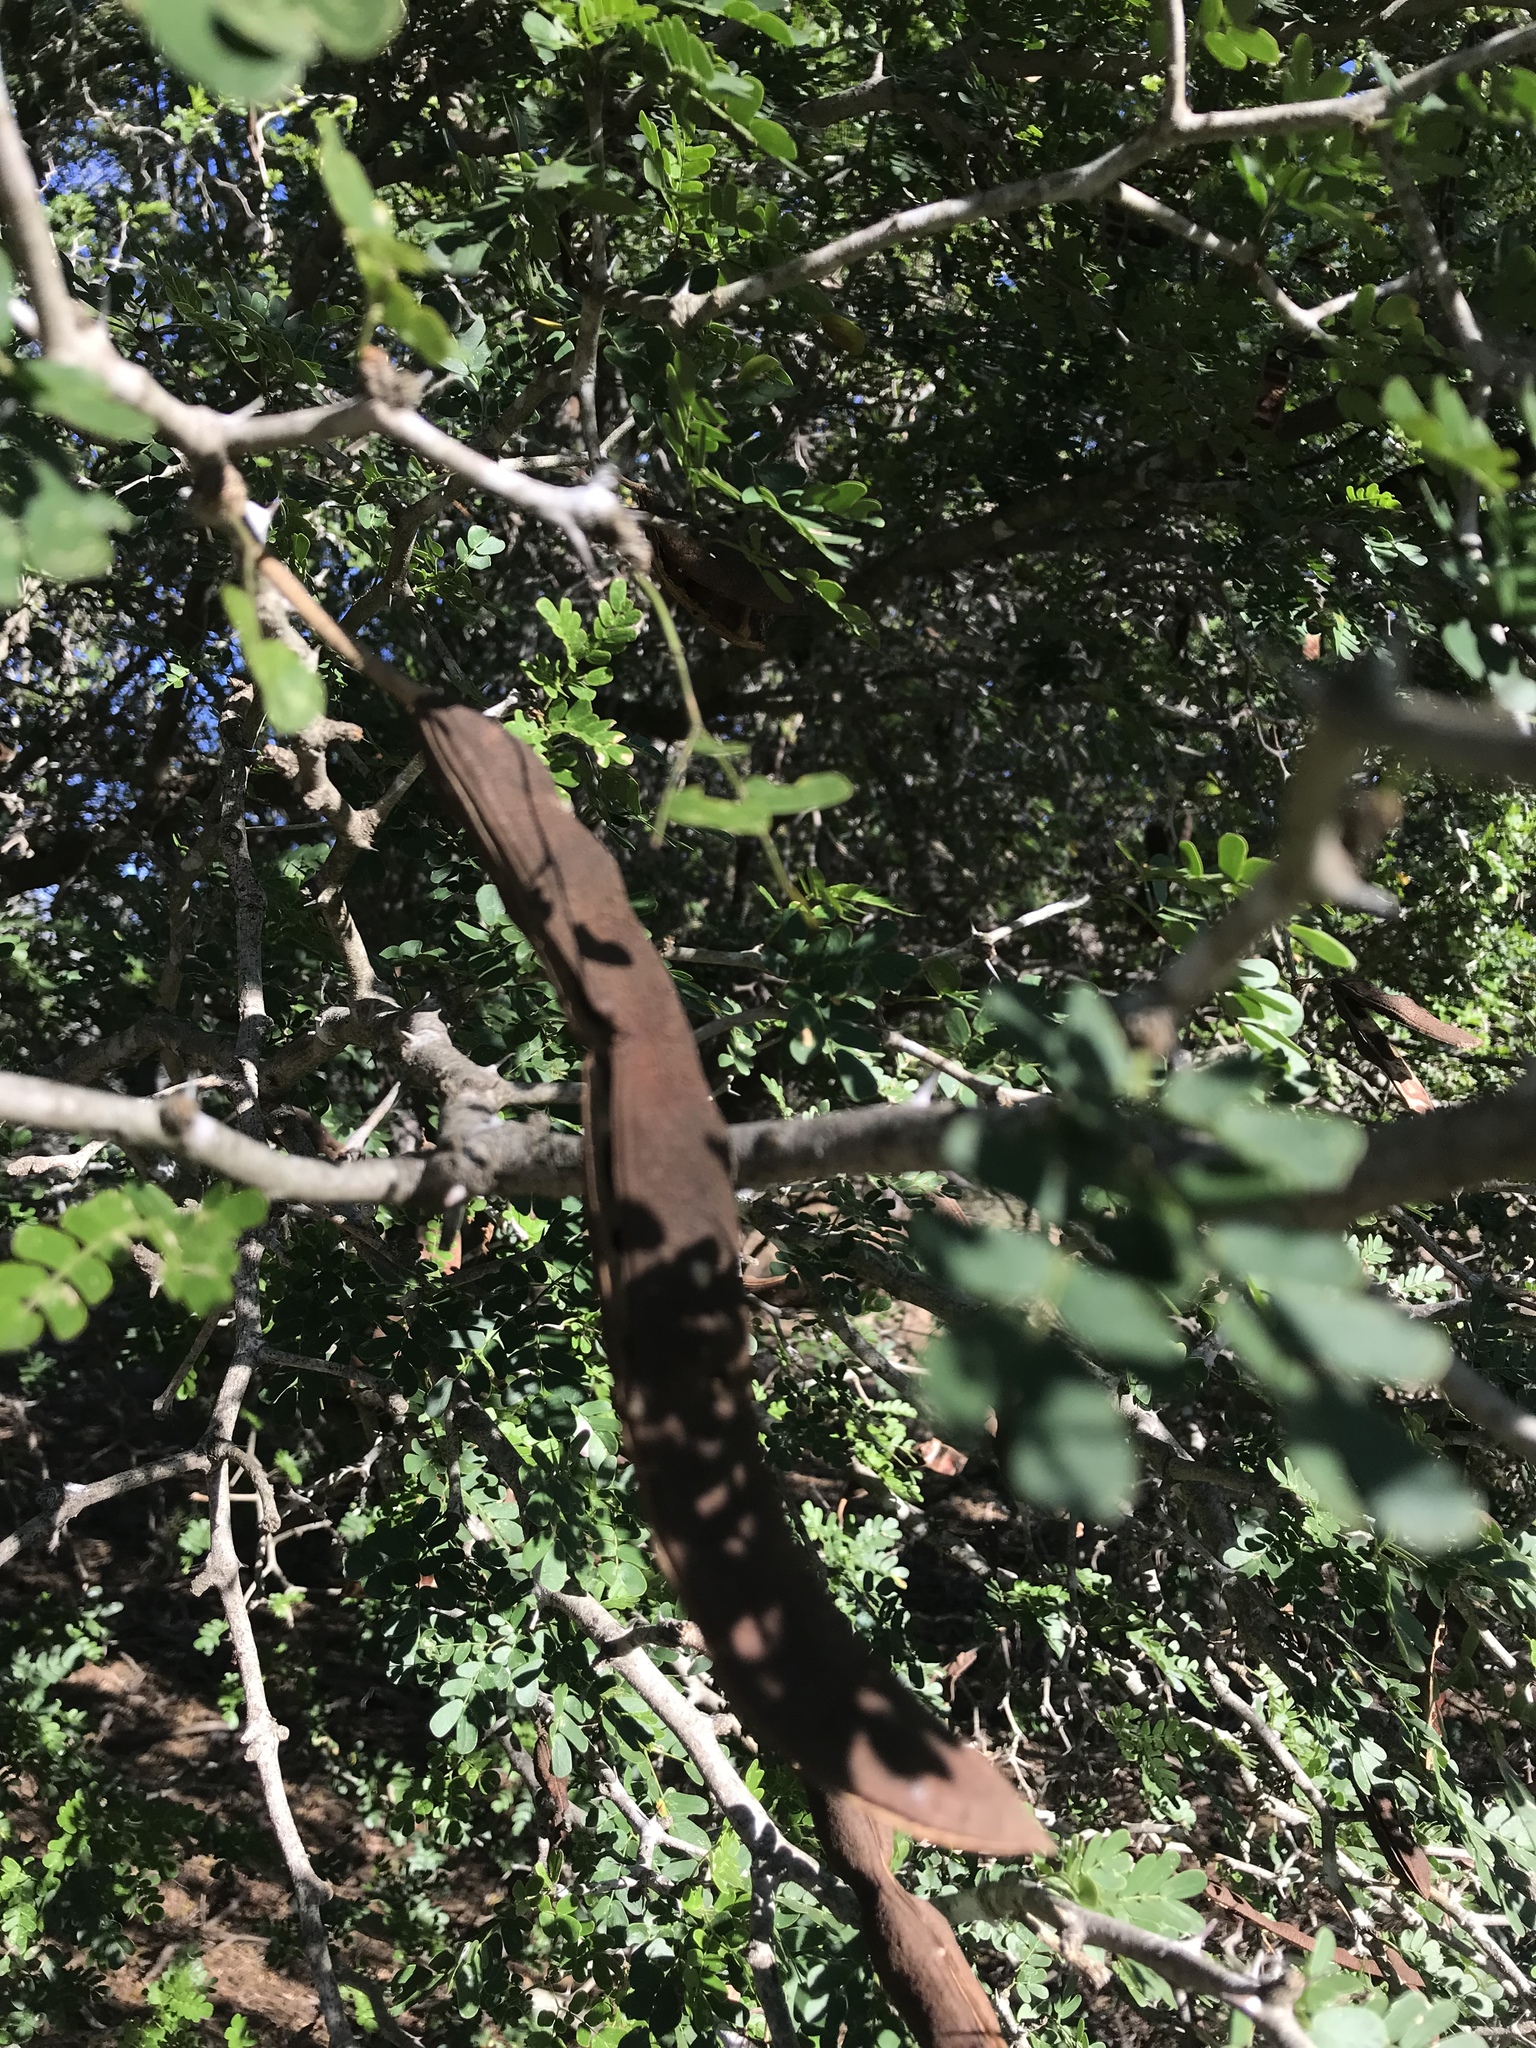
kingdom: Plantae
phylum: Tracheophyta
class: Magnoliopsida
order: Fabales
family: Fabaceae
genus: Ebenopsis
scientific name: Ebenopsis ebano
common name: Ebony blackbead
